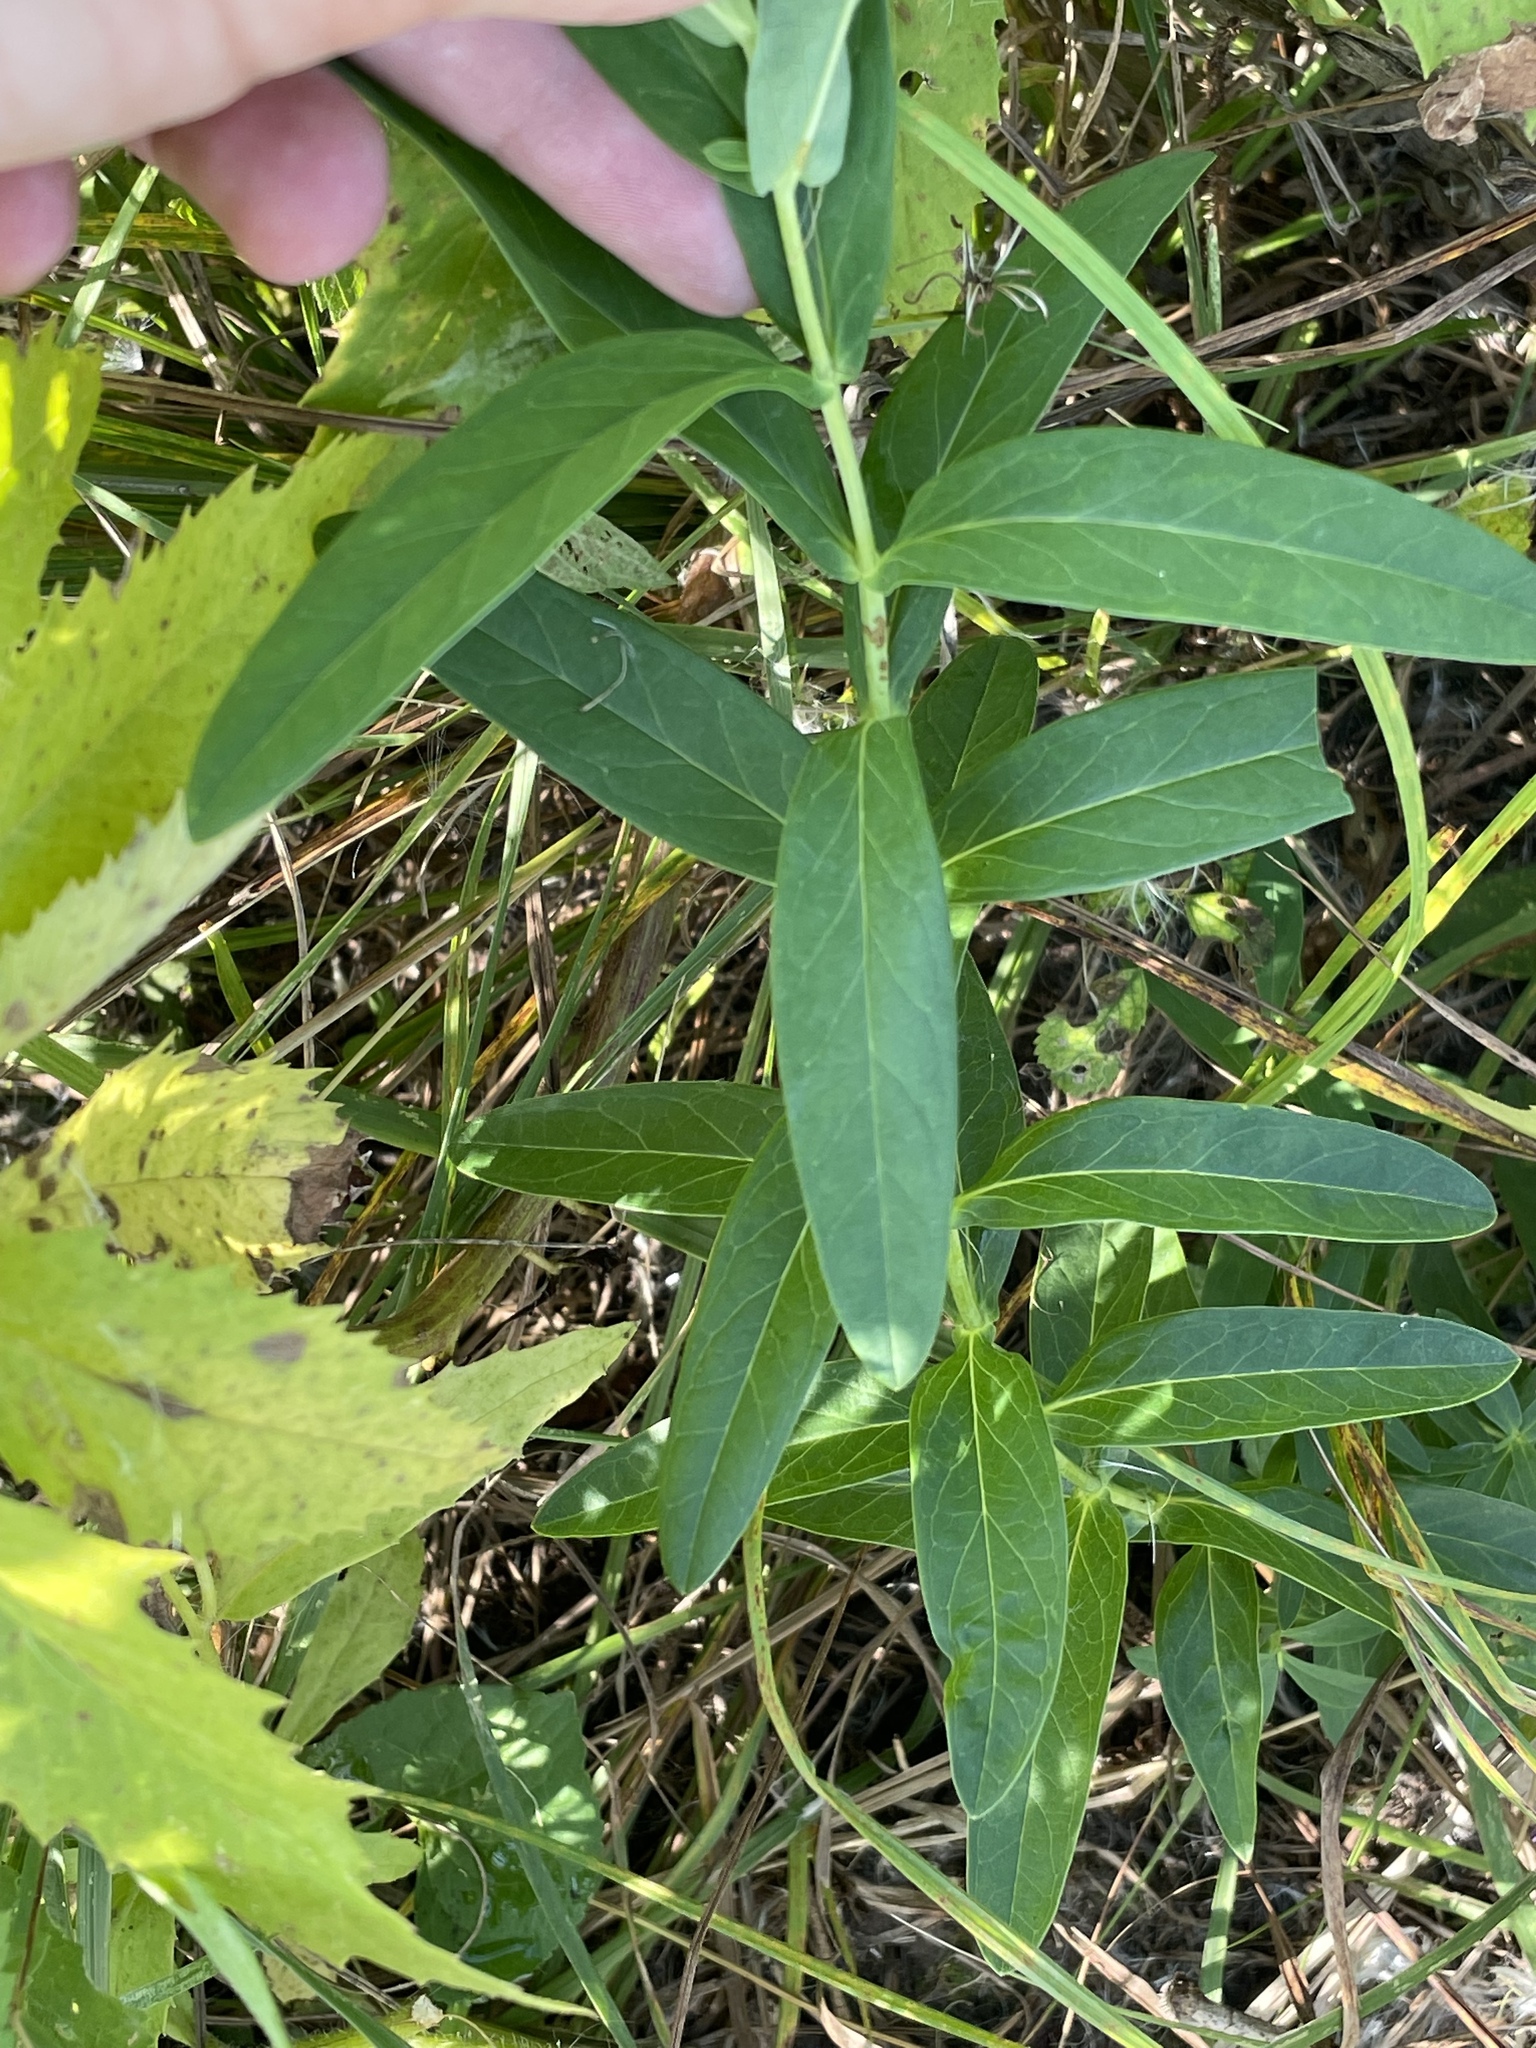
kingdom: Plantae
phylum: Tracheophyta
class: Magnoliopsida
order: Gentianales
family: Apocynaceae
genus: Asclepias
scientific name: Asclepias incarnata
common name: Swamp milkweed
